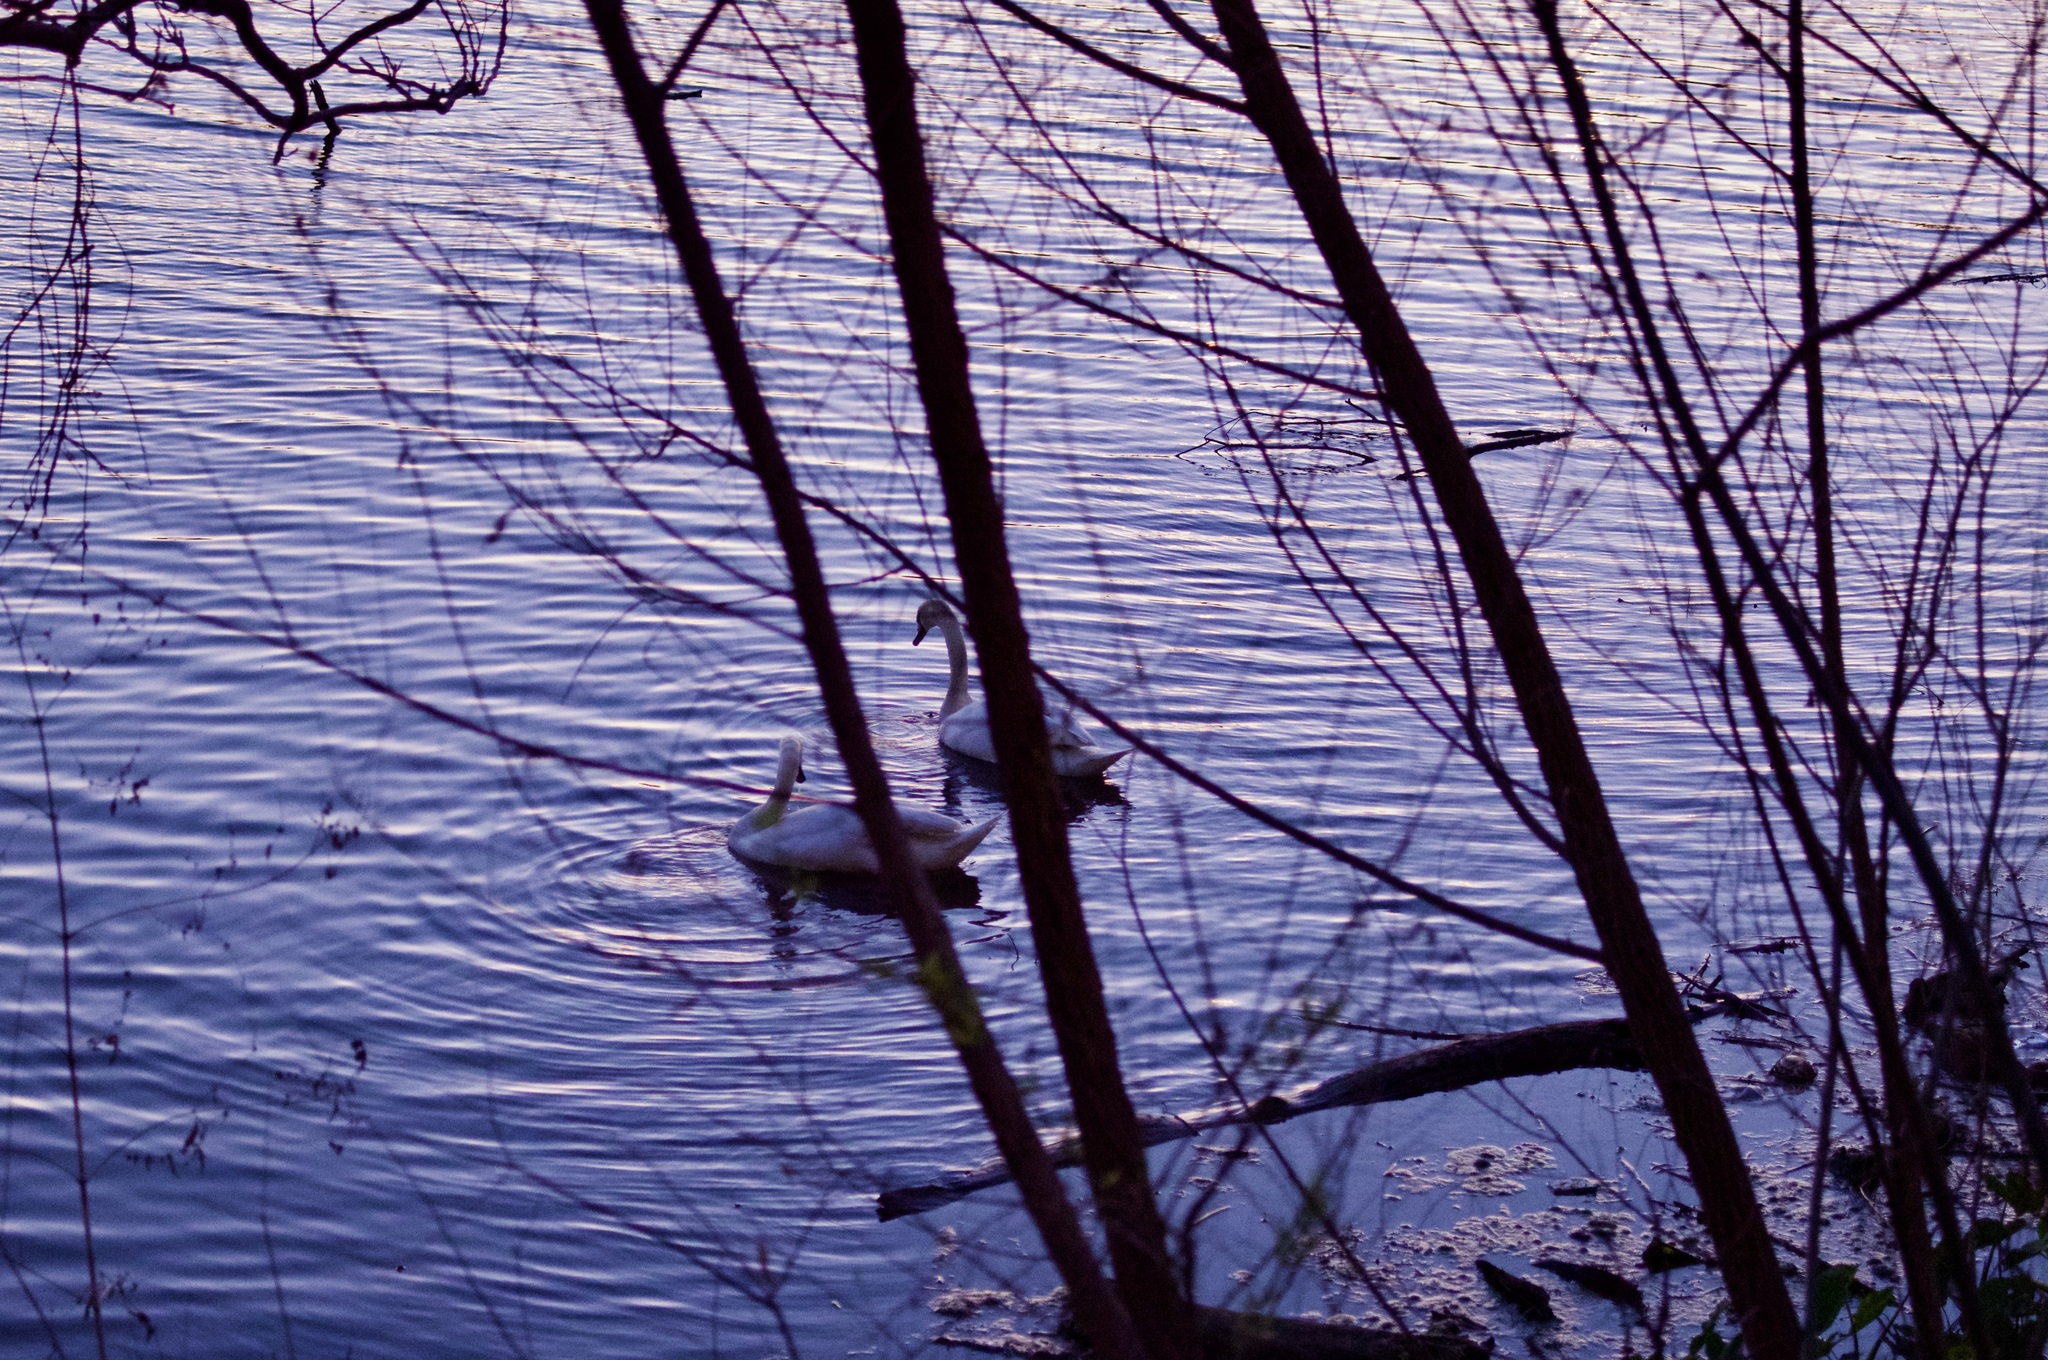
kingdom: Animalia
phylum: Chordata
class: Aves
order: Anseriformes
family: Anatidae
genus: Cygnus
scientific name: Cygnus olor
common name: Mute swan
